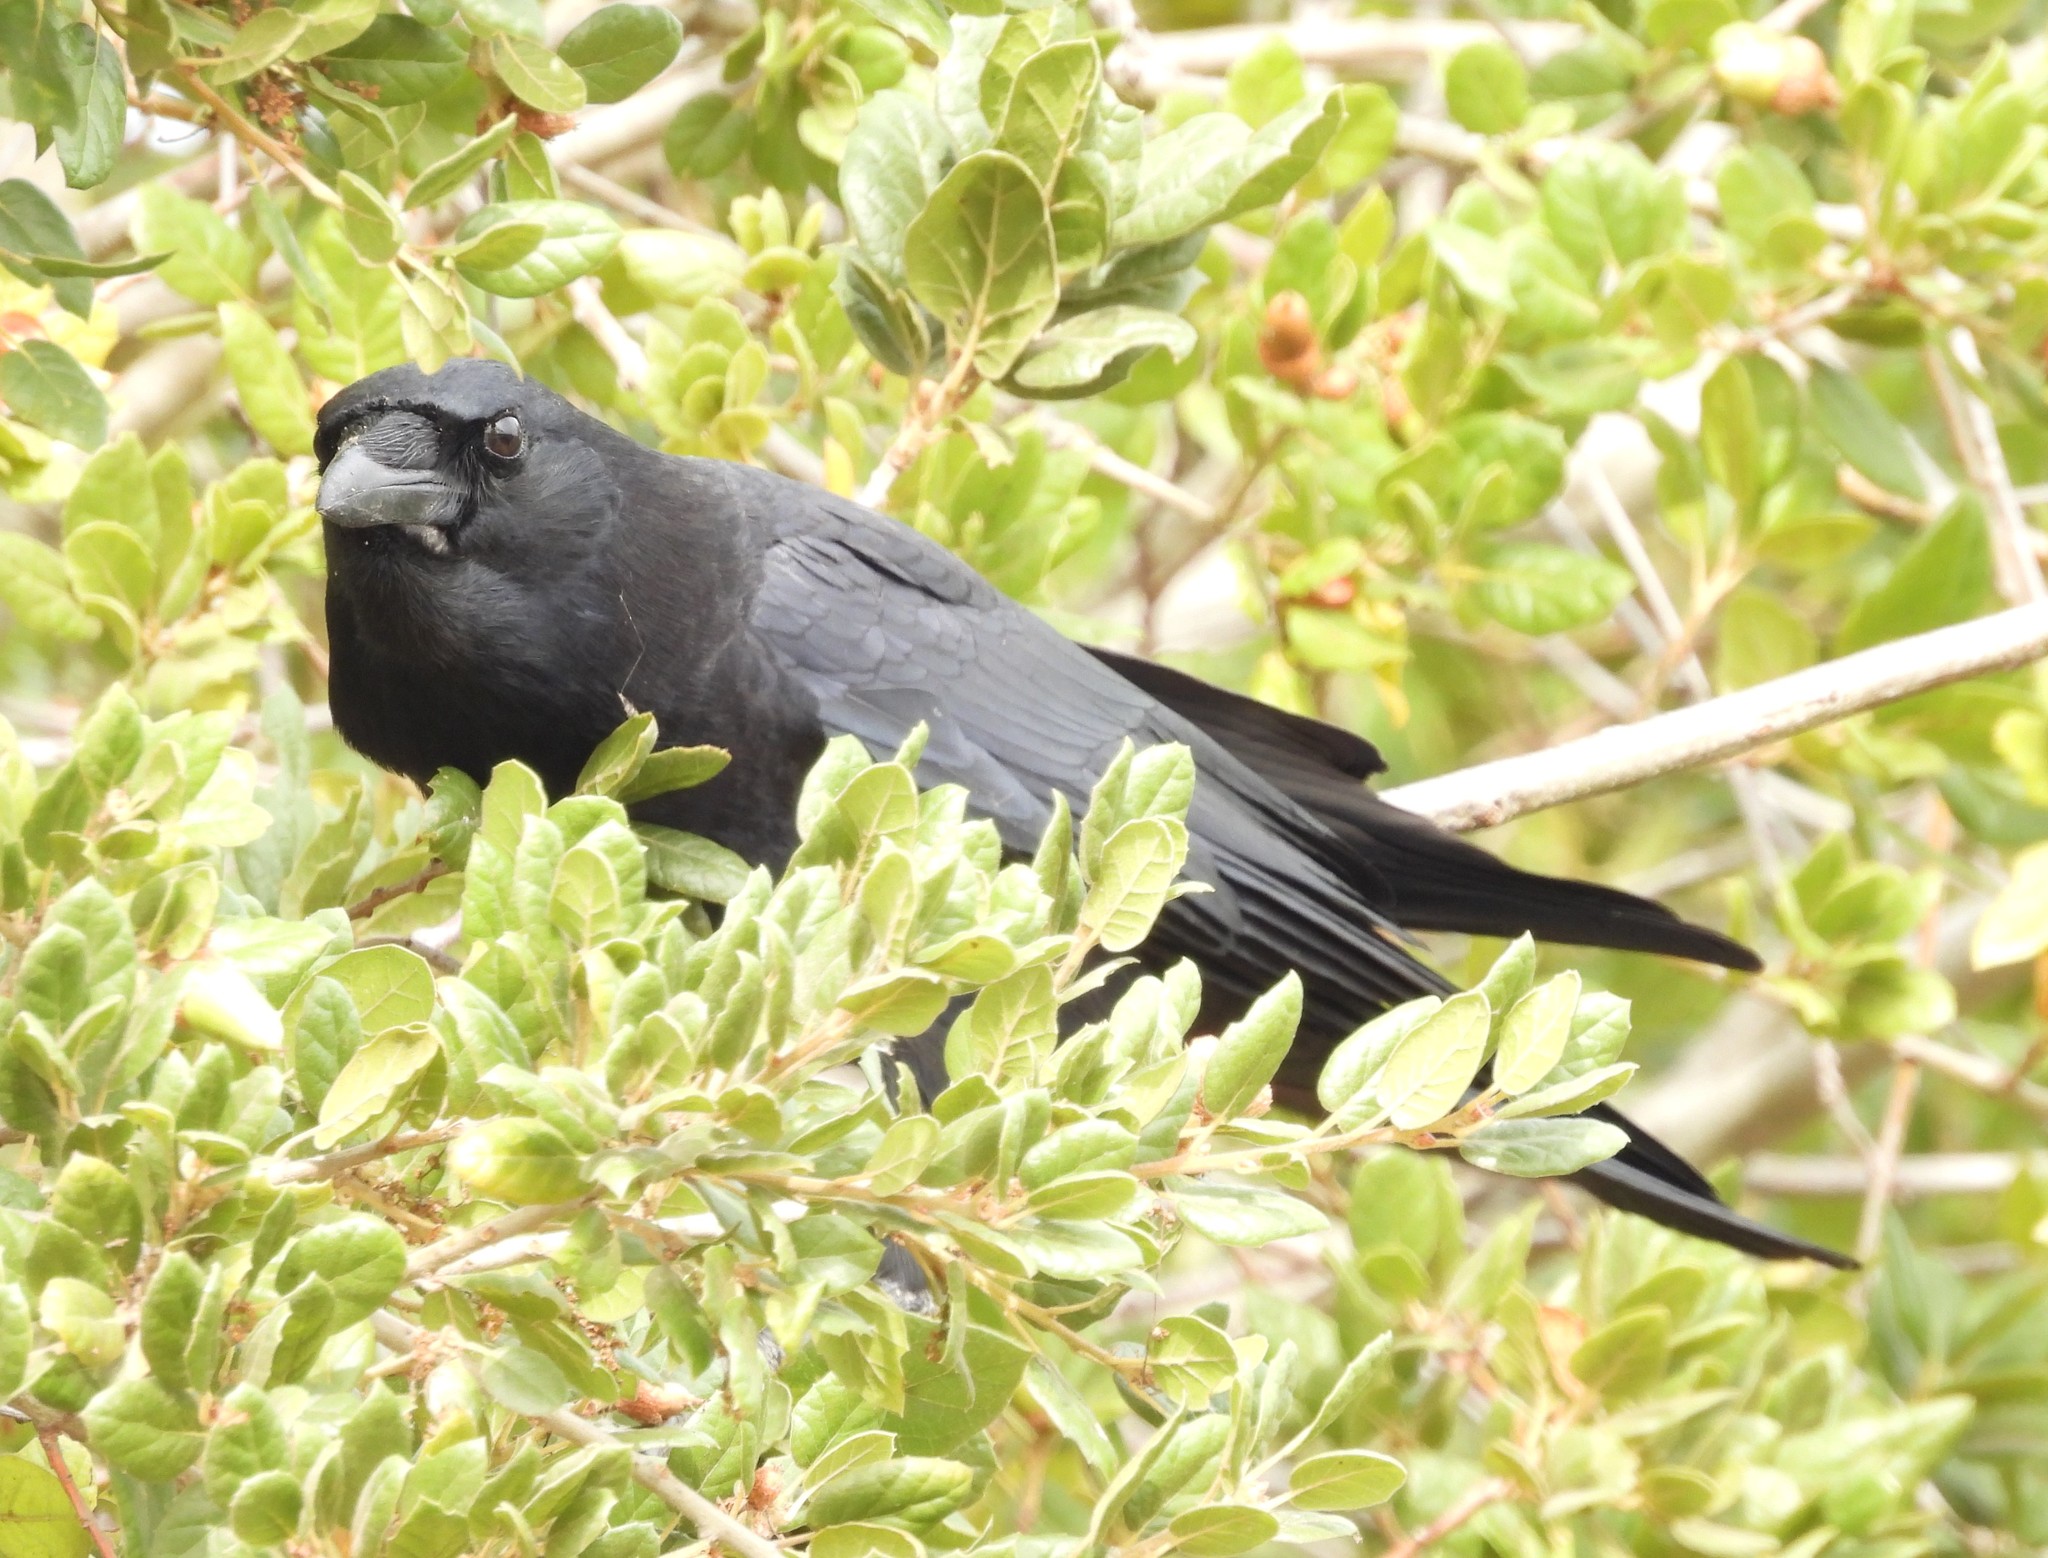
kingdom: Animalia
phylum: Chordata
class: Aves
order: Passeriformes
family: Corvidae
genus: Corvus
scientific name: Corvus brachyrhynchos
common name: American crow
